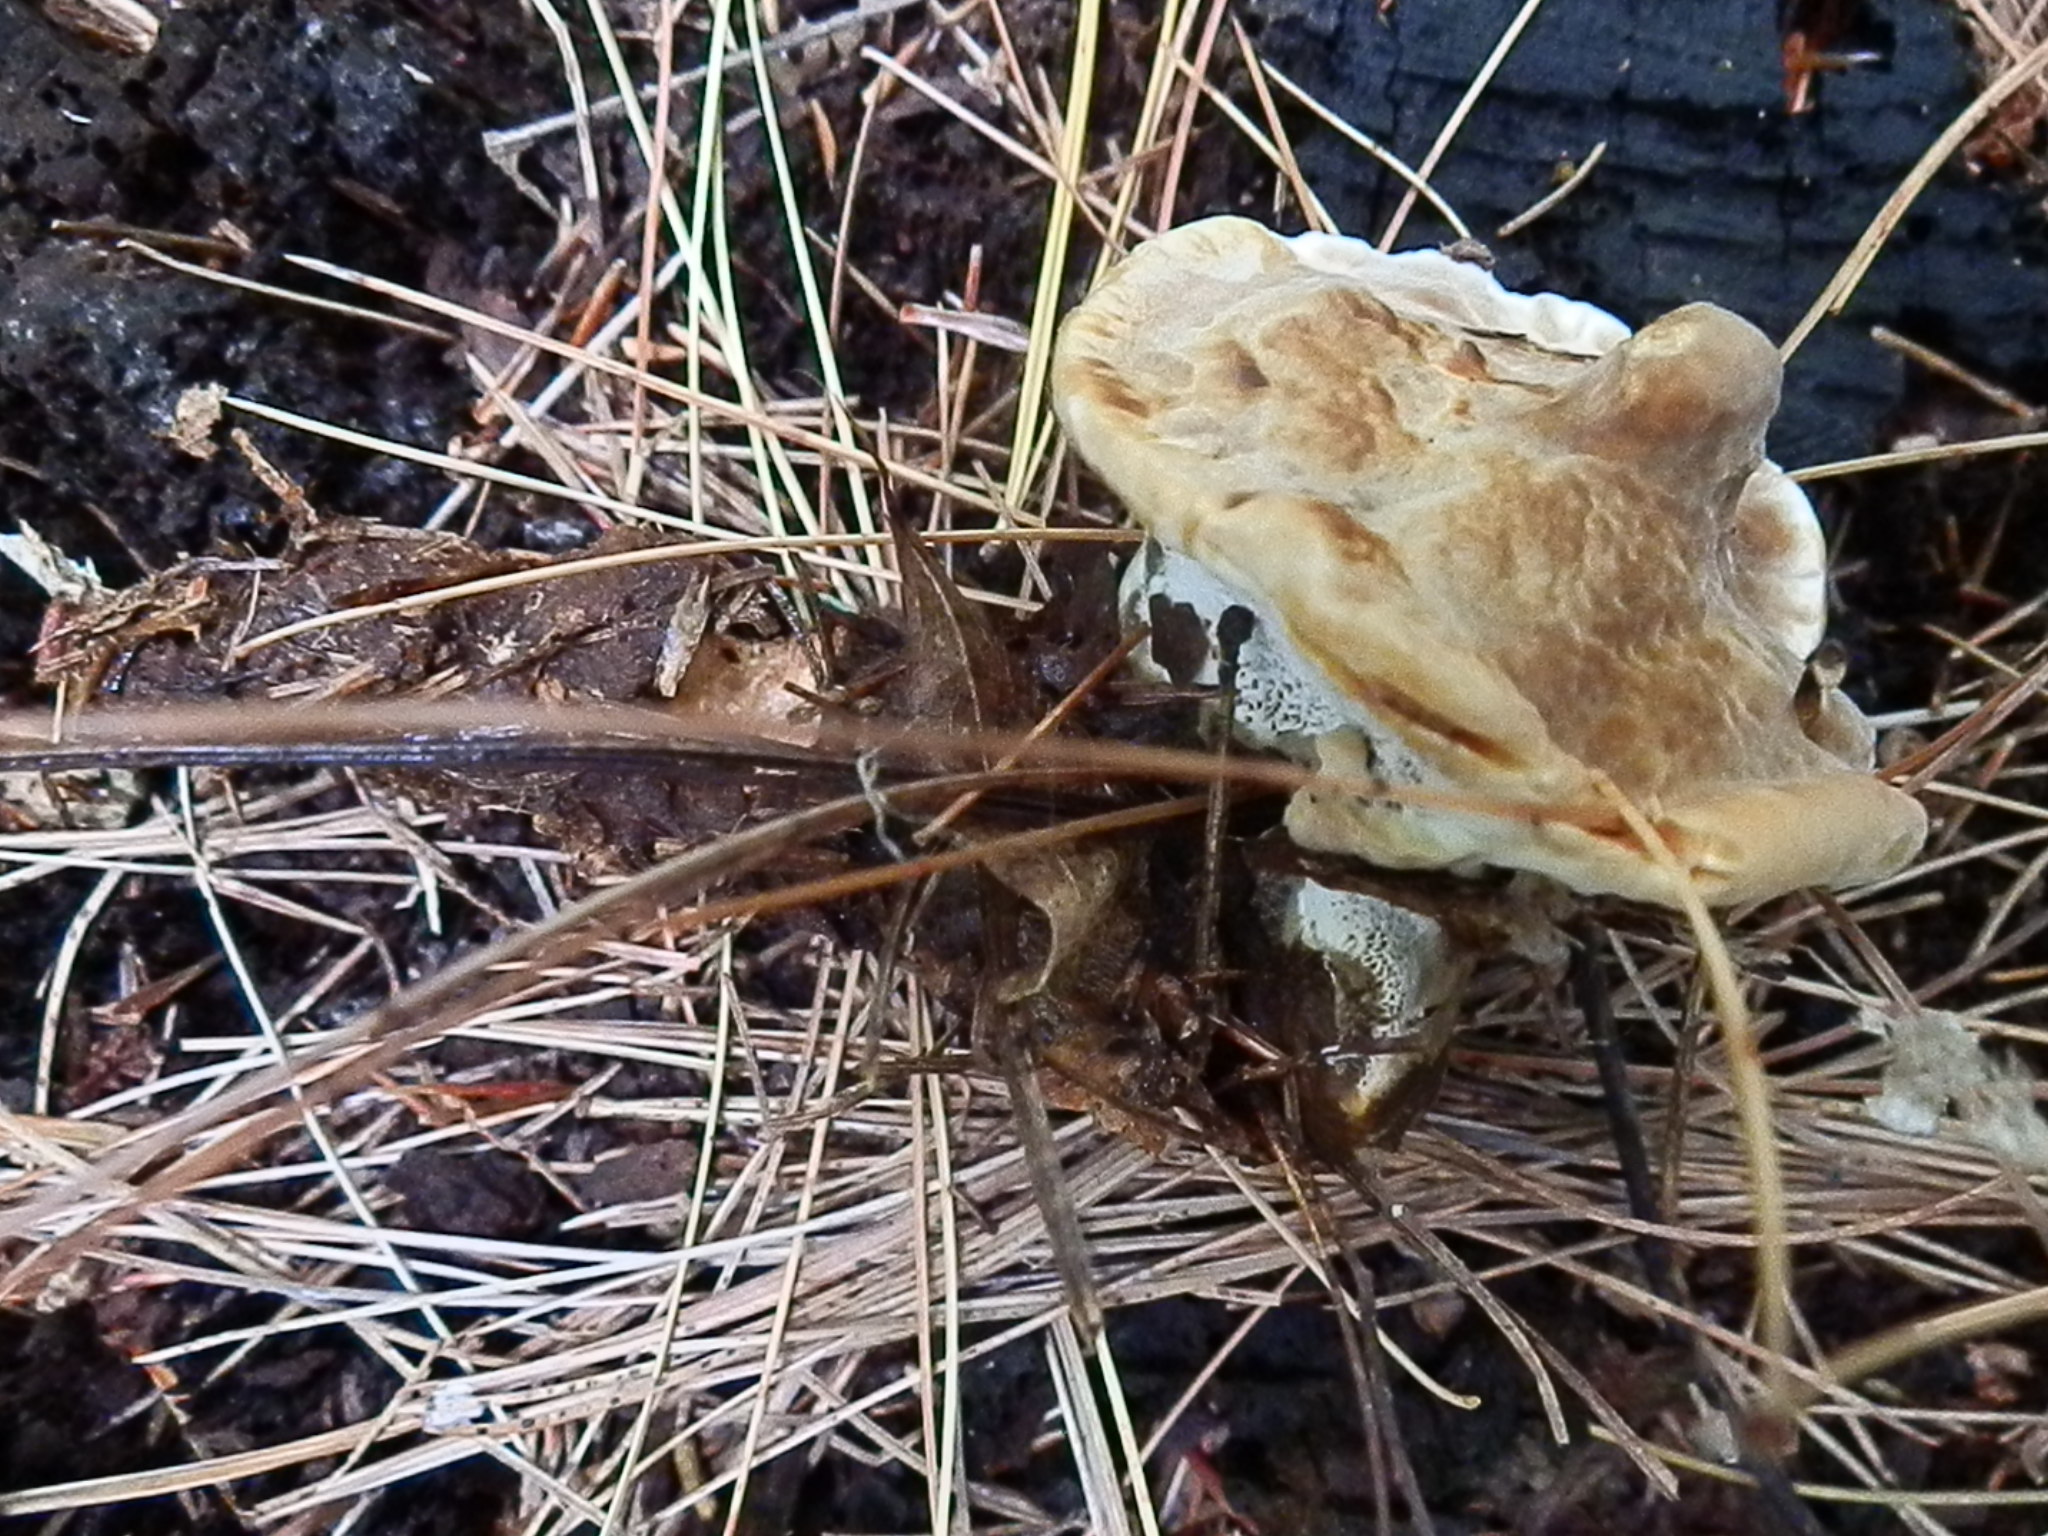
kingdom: Fungi
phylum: Basidiomycota
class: Agaricomycetes
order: Hymenochaetales
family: Hymenochaetaceae
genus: Onnia
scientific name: Onnia circinata
